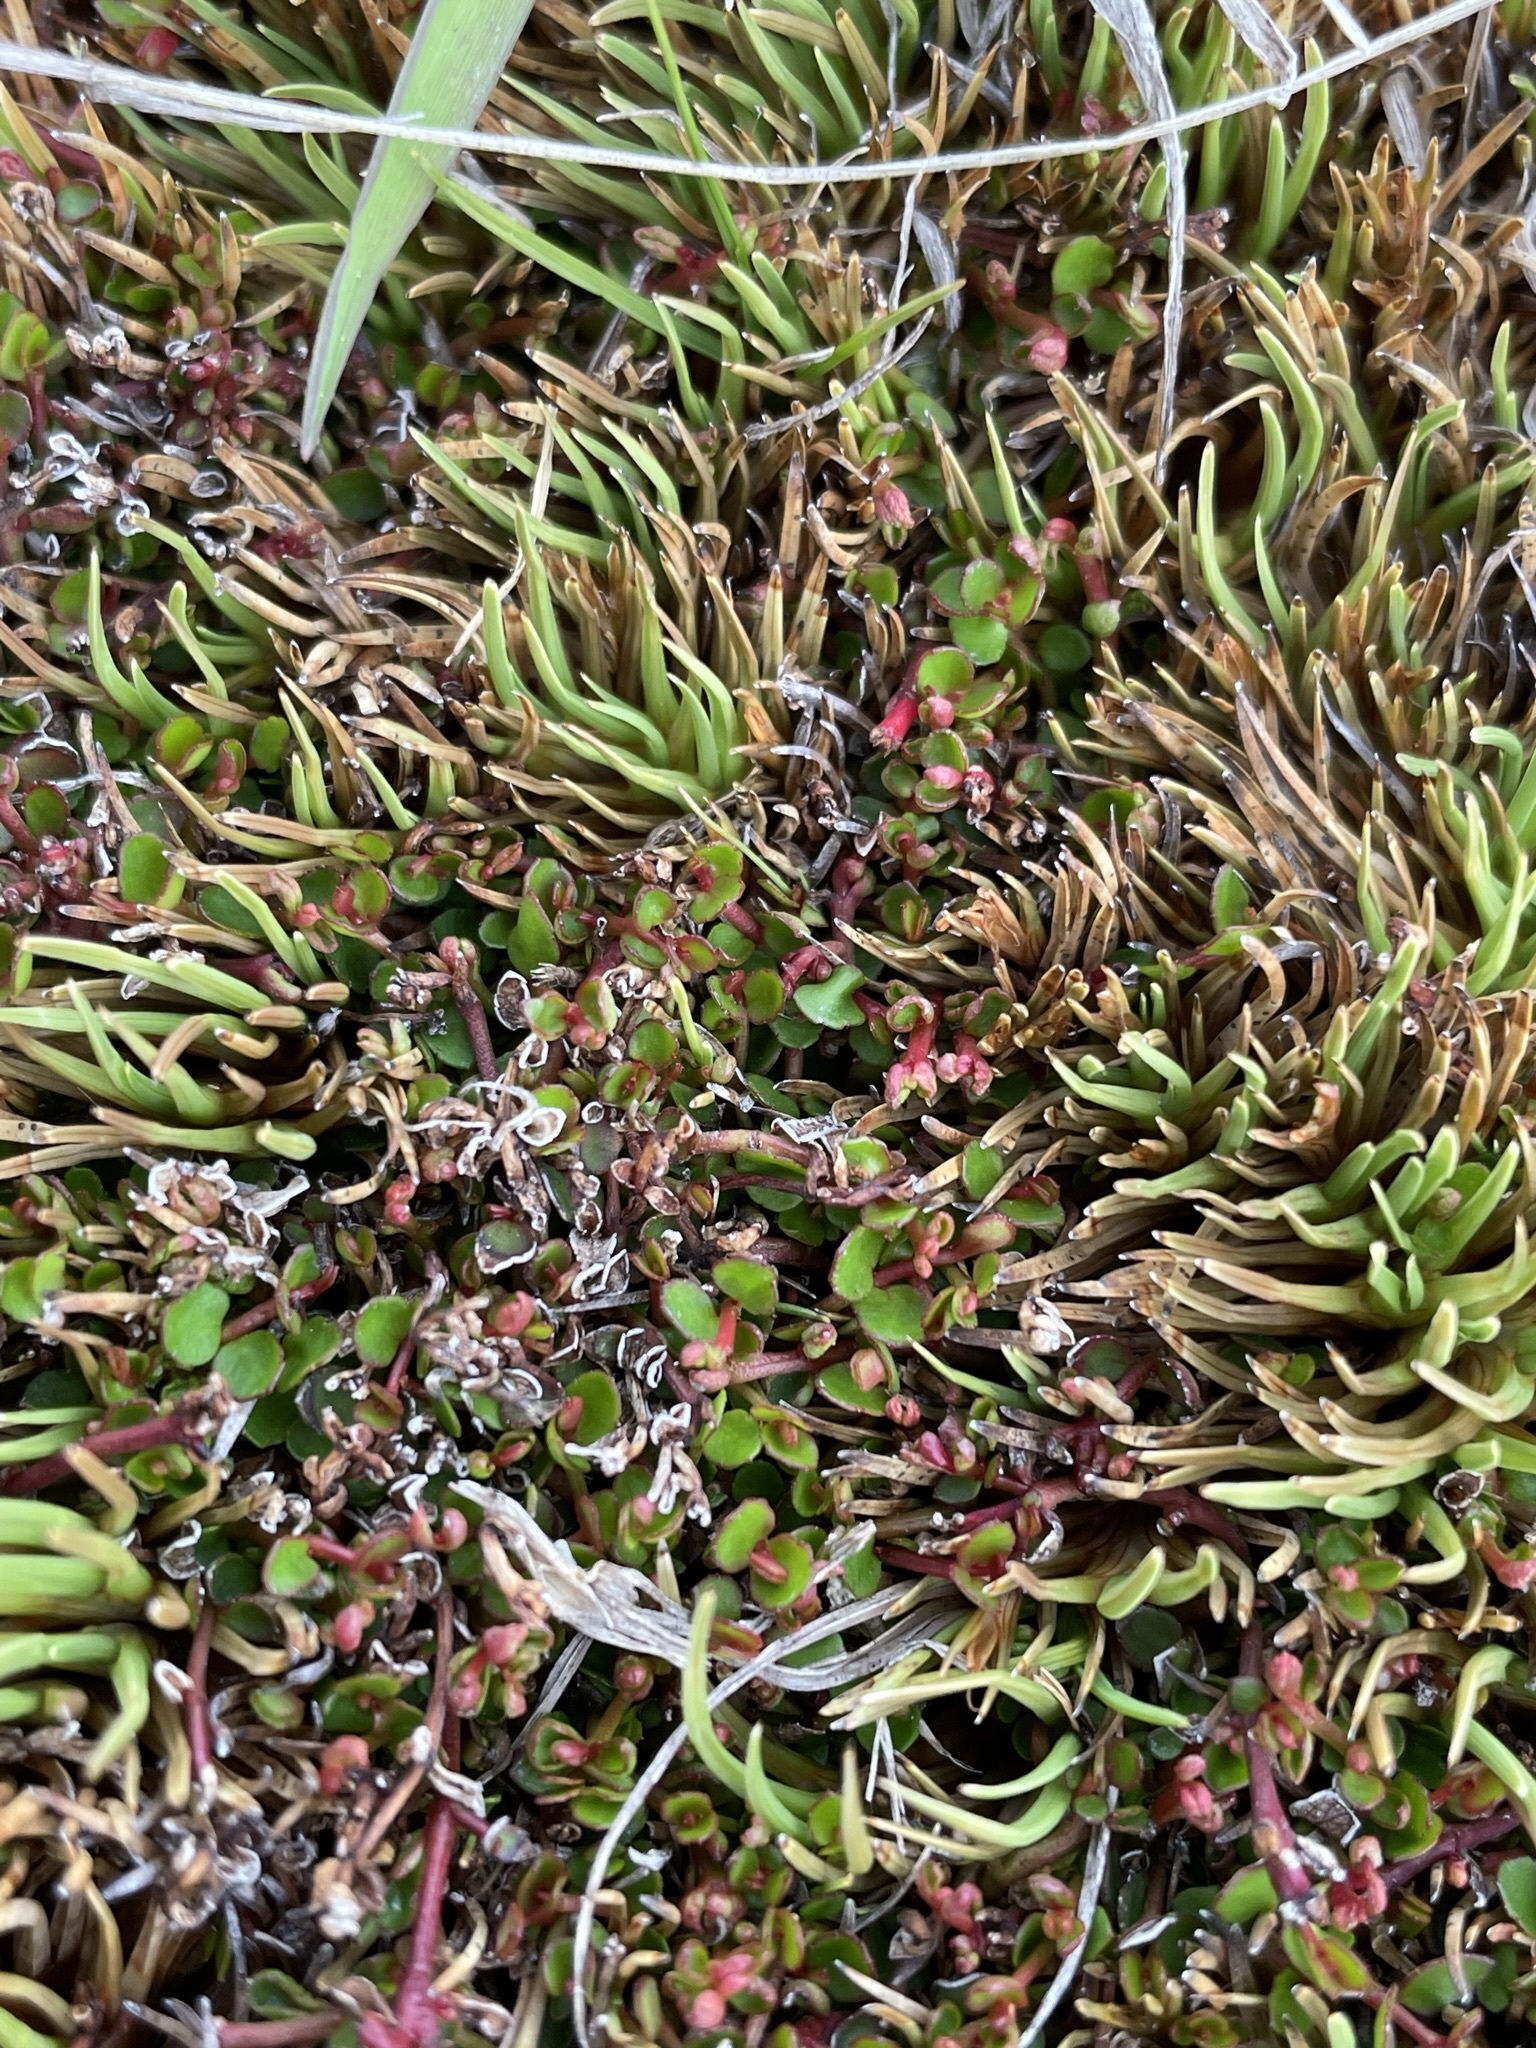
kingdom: Plantae
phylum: Tracheophyta
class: Magnoliopsida
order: Saxifragales
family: Haloragaceae
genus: Gonocarpus
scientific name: Gonocarpus micranthus
